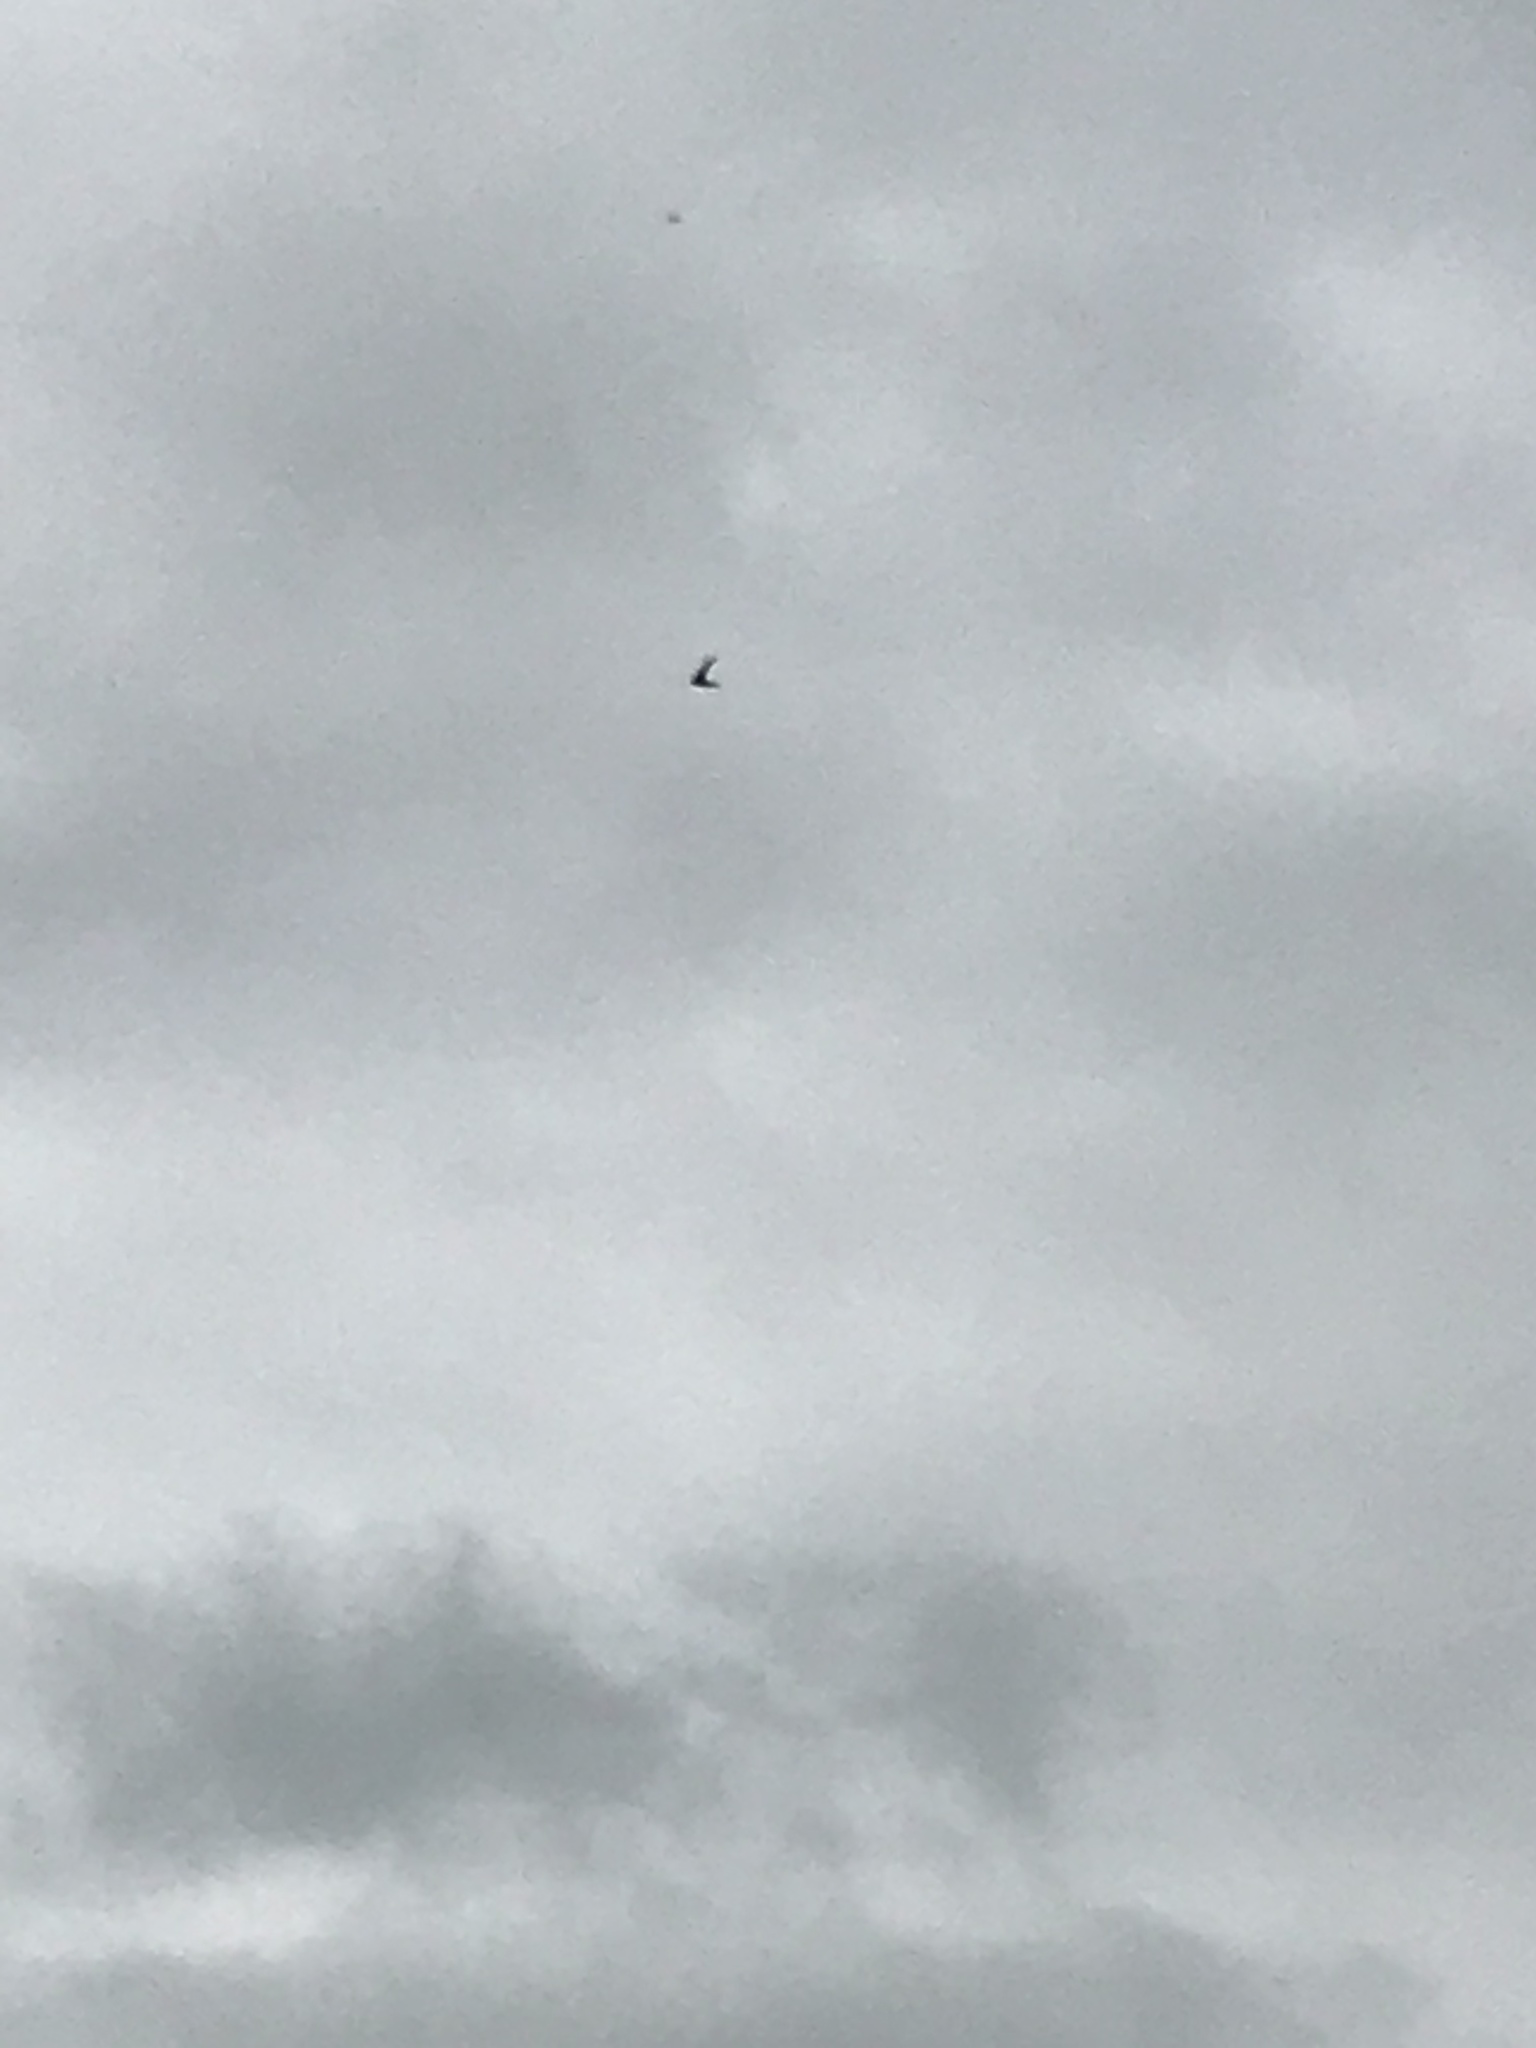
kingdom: Animalia
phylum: Chordata
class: Aves
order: Apodiformes
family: Apodidae
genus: Apus
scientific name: Apus apus
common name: Common swift
